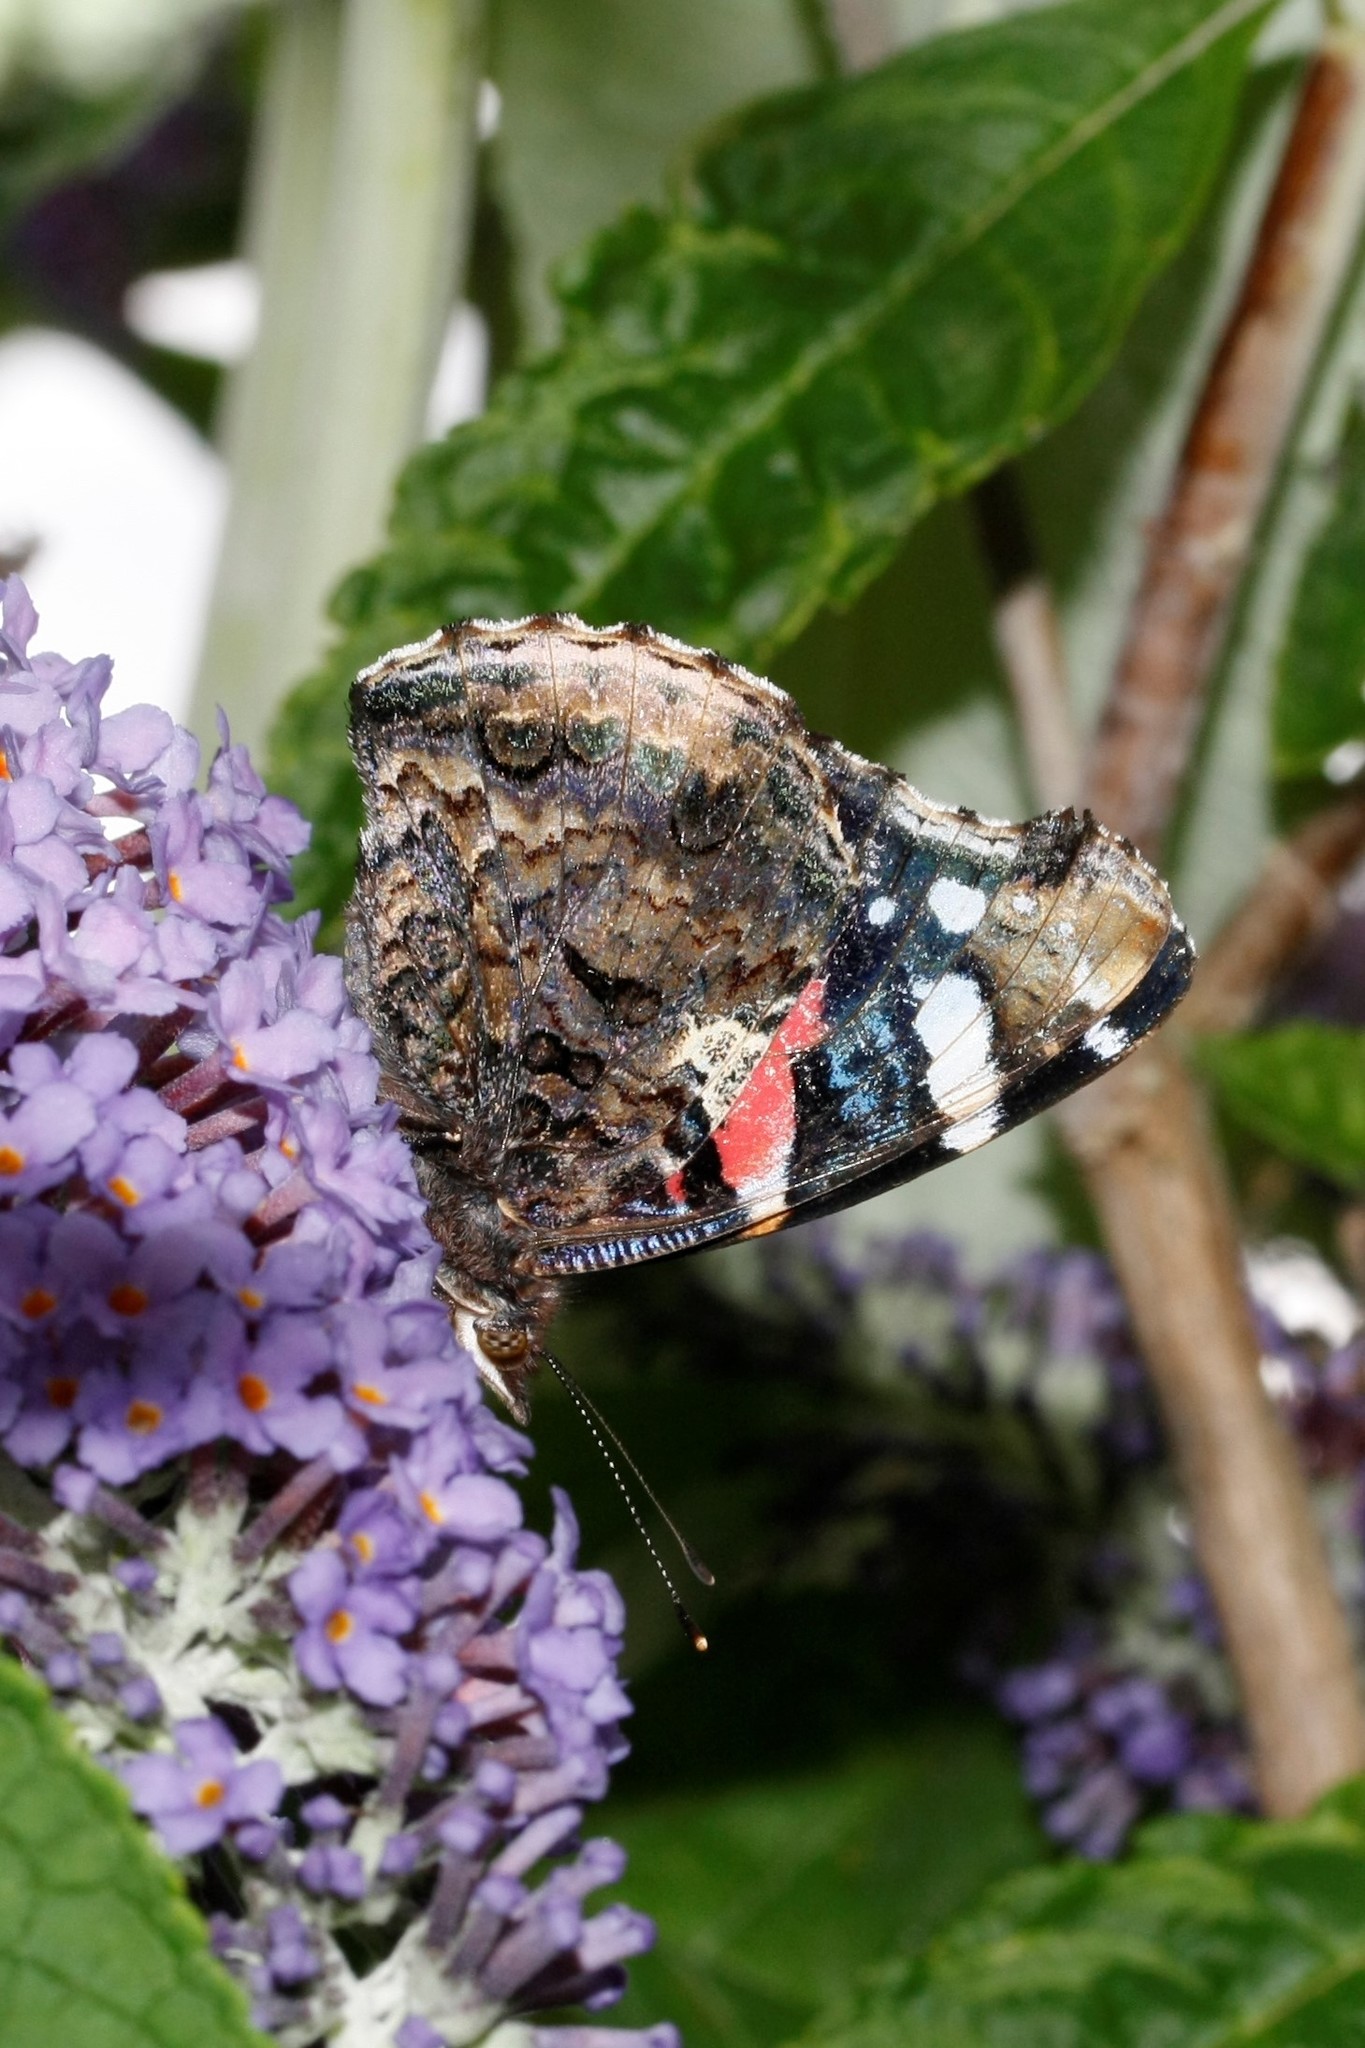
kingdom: Animalia
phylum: Arthropoda
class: Insecta
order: Lepidoptera
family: Nymphalidae
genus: Vanessa
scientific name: Vanessa atalanta
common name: Red admiral
